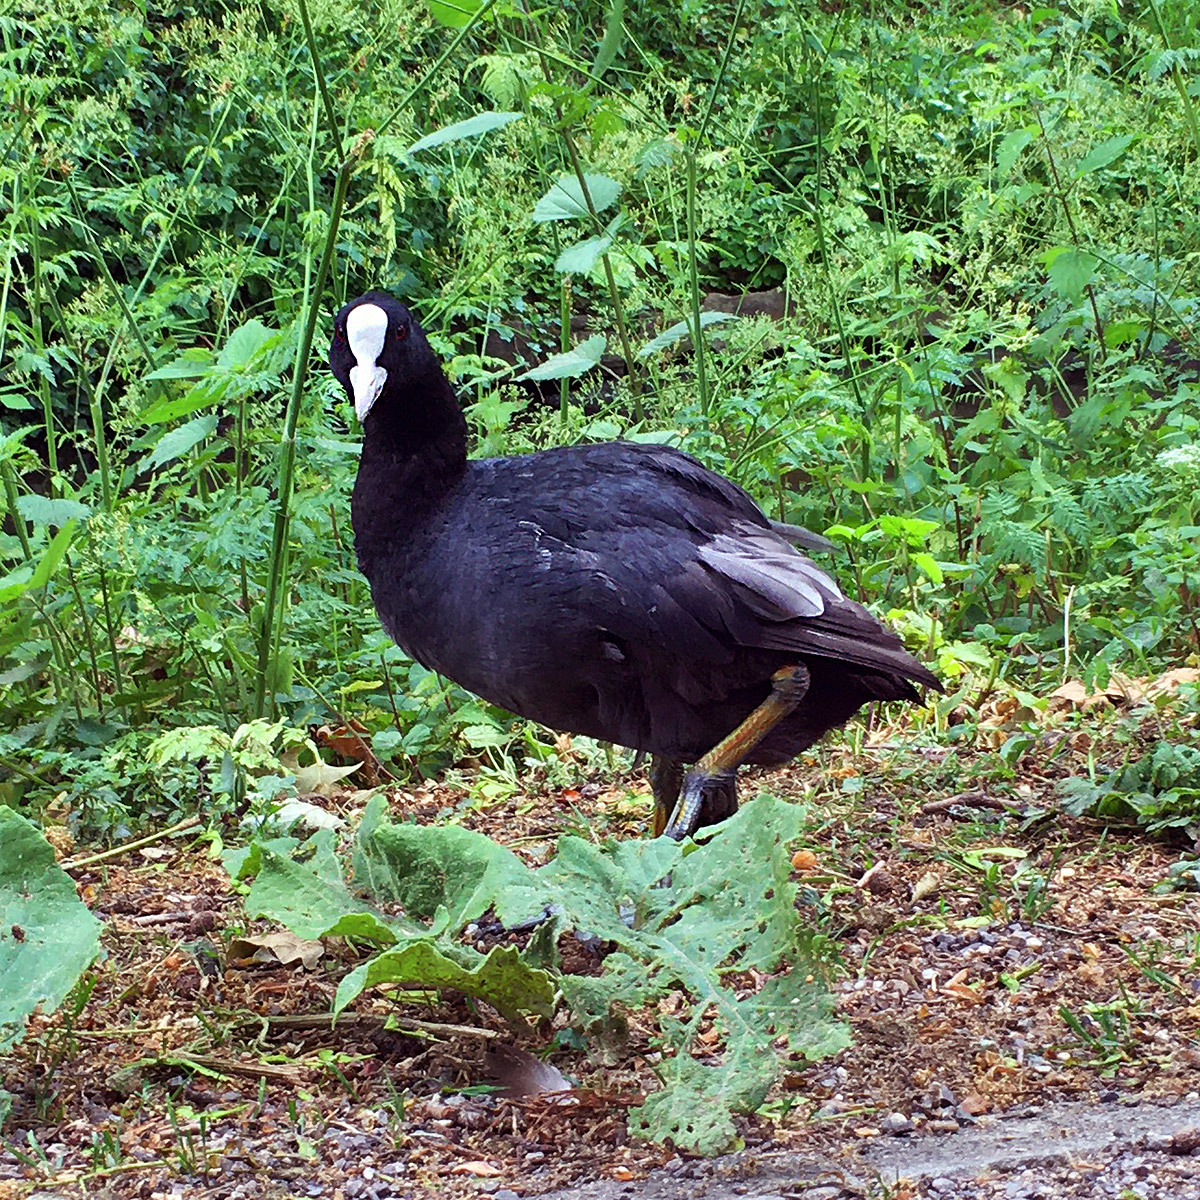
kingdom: Animalia
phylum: Chordata
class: Aves
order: Gruiformes
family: Rallidae
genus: Fulica
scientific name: Fulica atra
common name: Eurasian coot
